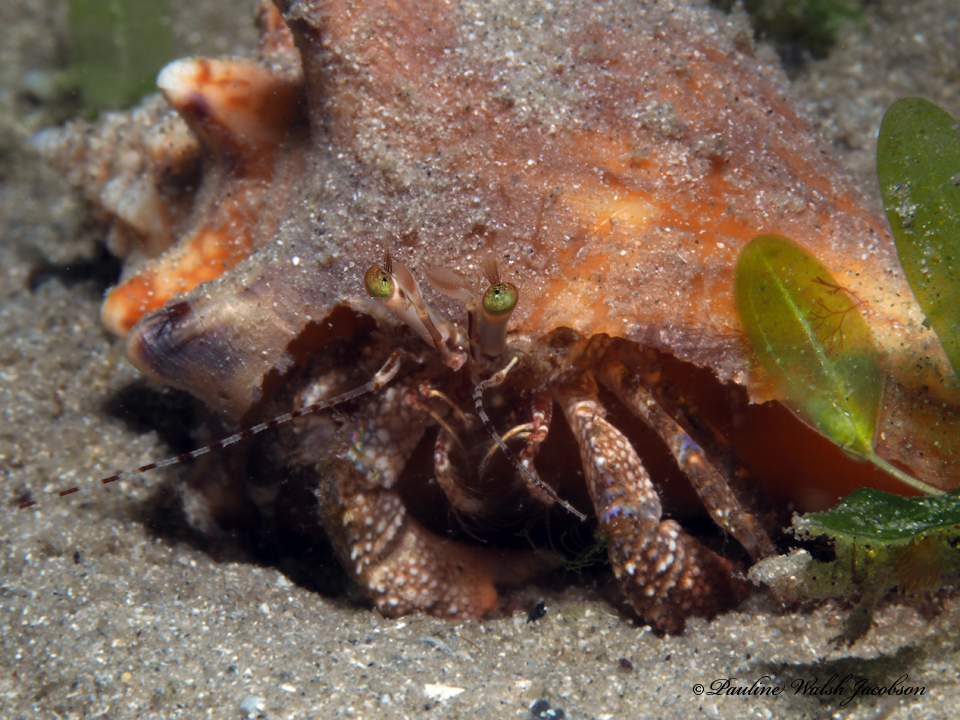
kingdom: Animalia
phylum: Arthropoda
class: Malacostraca
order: Decapoda
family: Diogenidae
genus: Petrochirus
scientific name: Petrochirus diogenes
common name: Giant hermit crab
